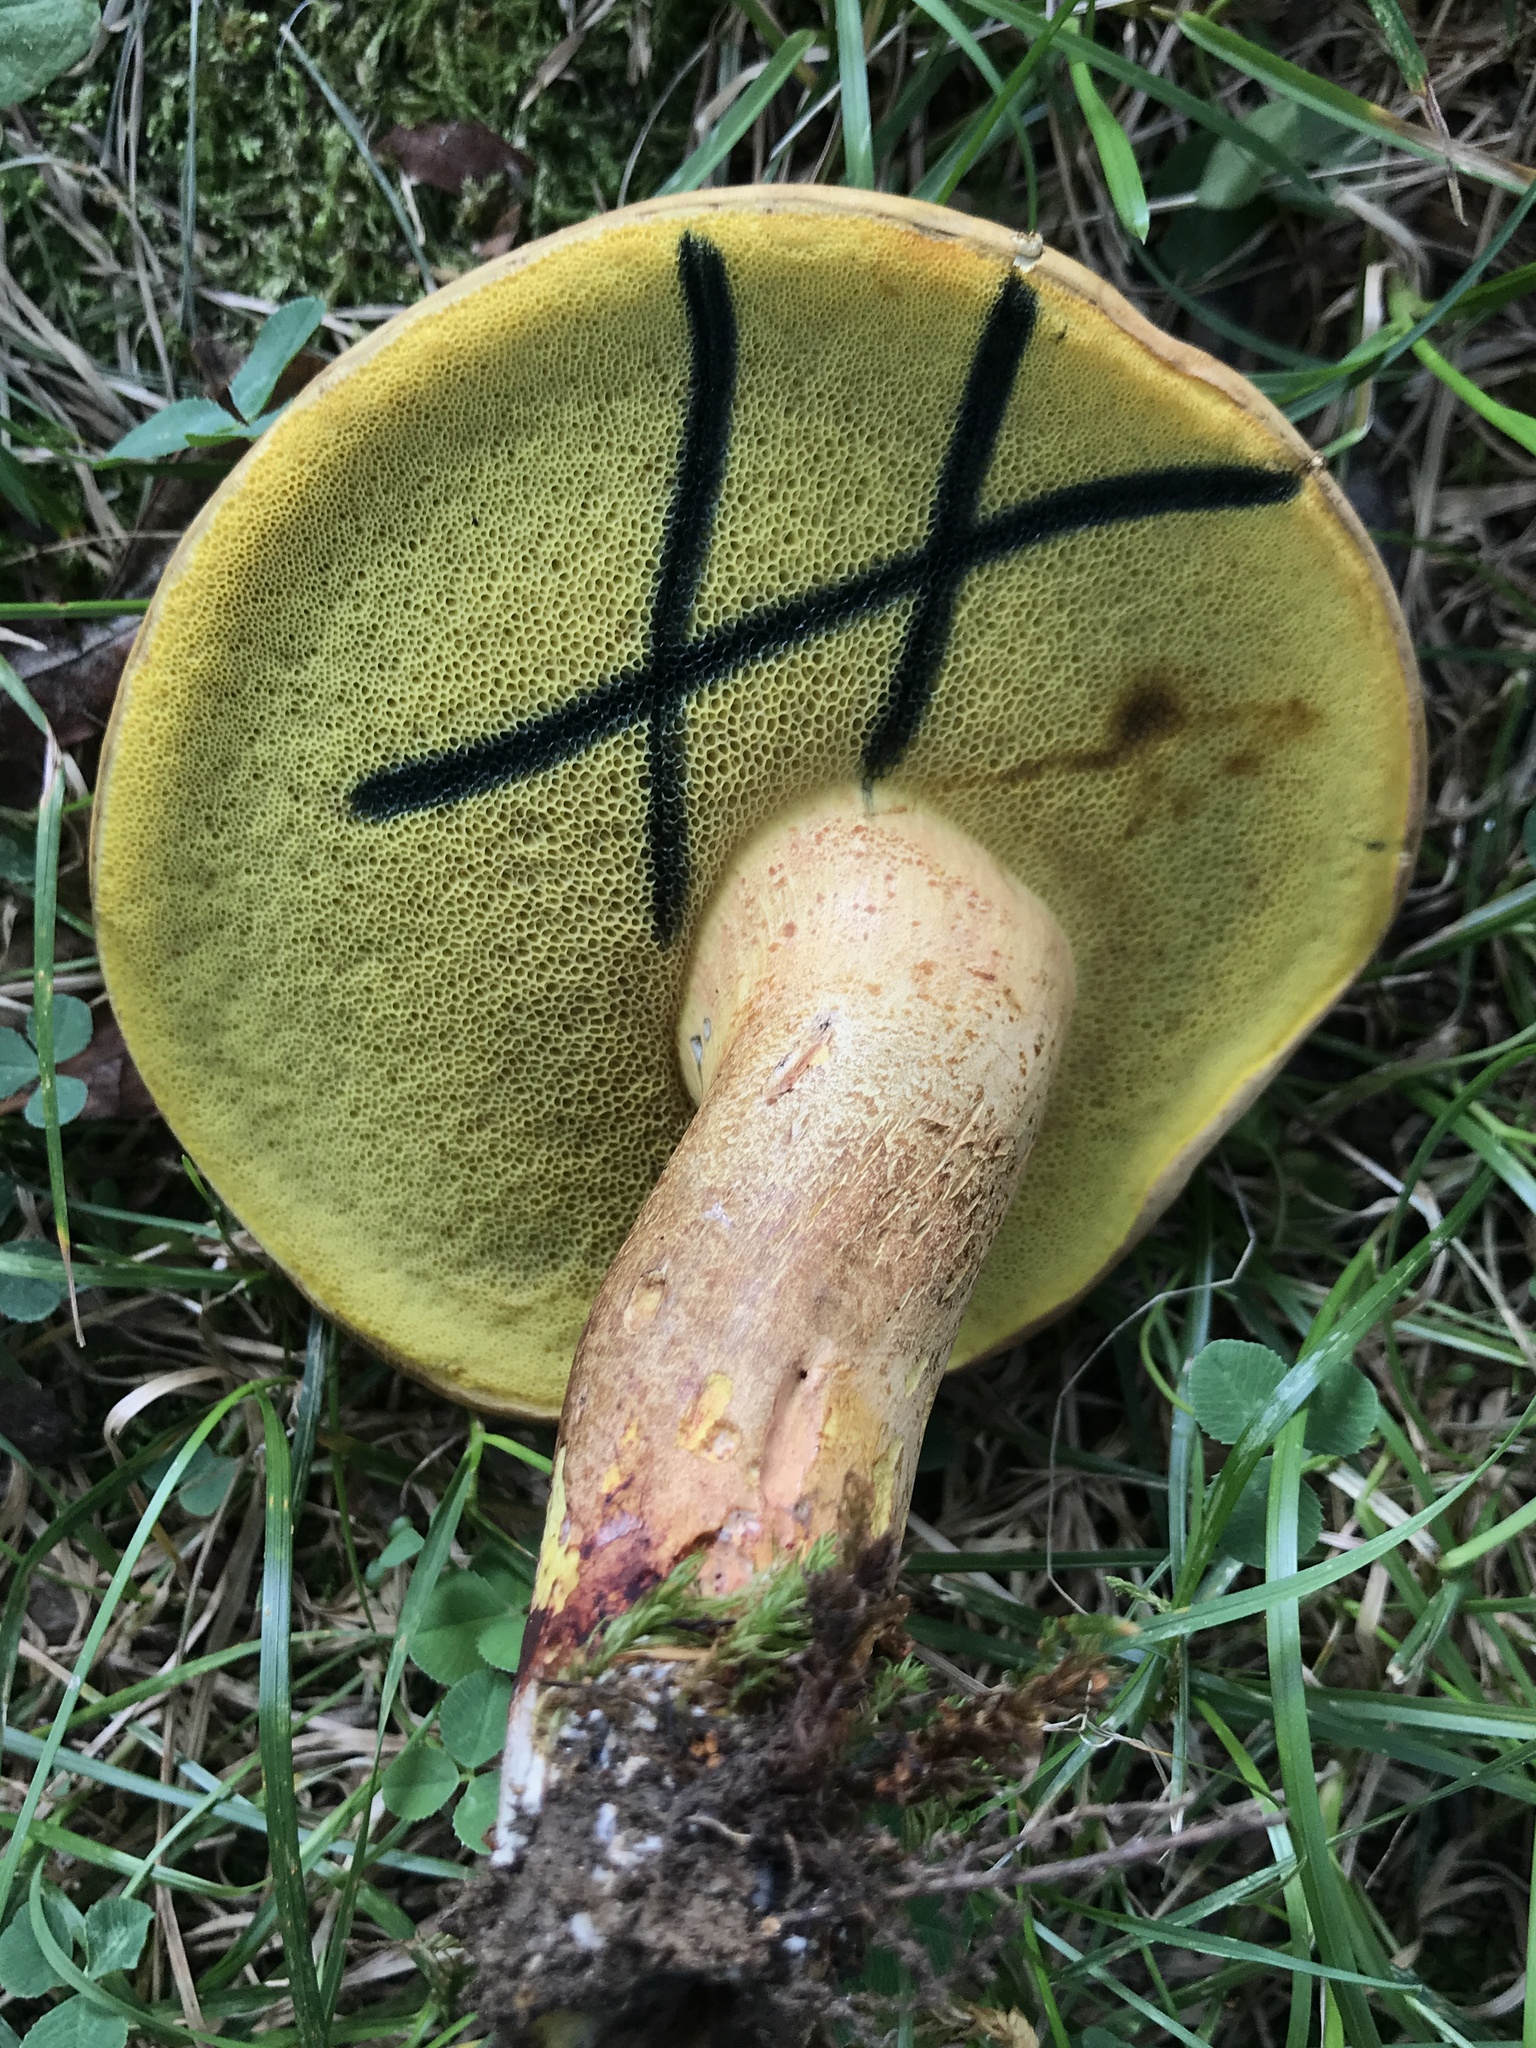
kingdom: Fungi
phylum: Basidiomycota
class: Agaricomycetes
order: Boletales
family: Boletaceae
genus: Lanmaoa
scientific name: Lanmaoa pseudosensibilis
